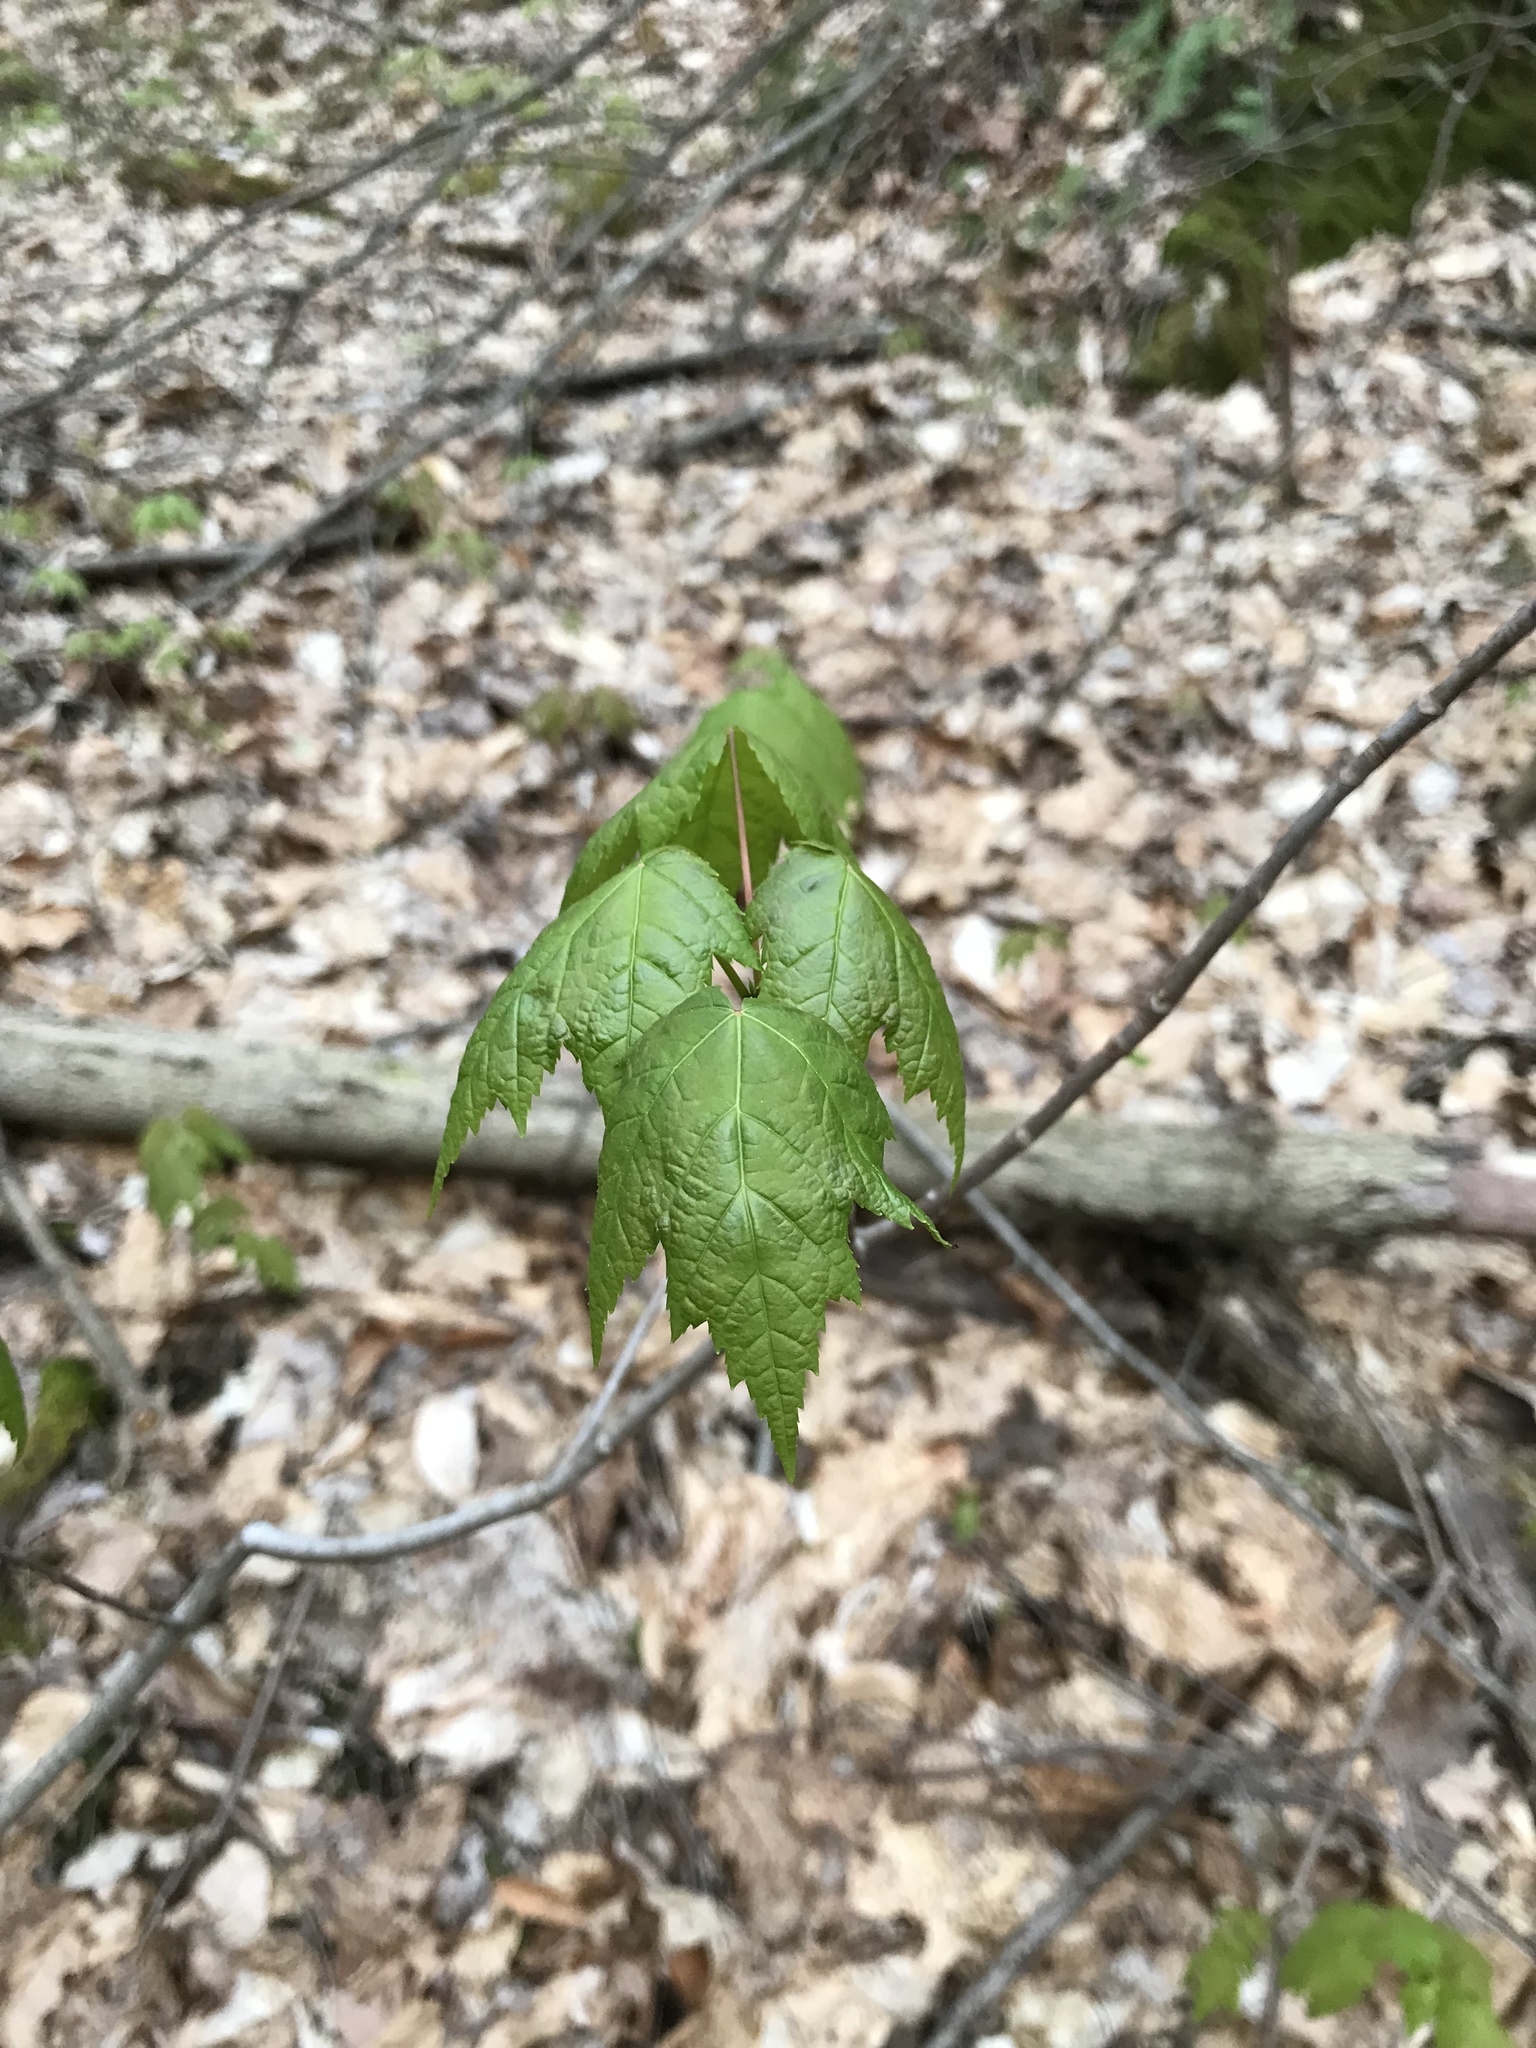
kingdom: Plantae
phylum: Tracheophyta
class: Magnoliopsida
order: Sapindales
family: Sapindaceae
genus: Acer
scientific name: Acer rubrum
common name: Red maple
